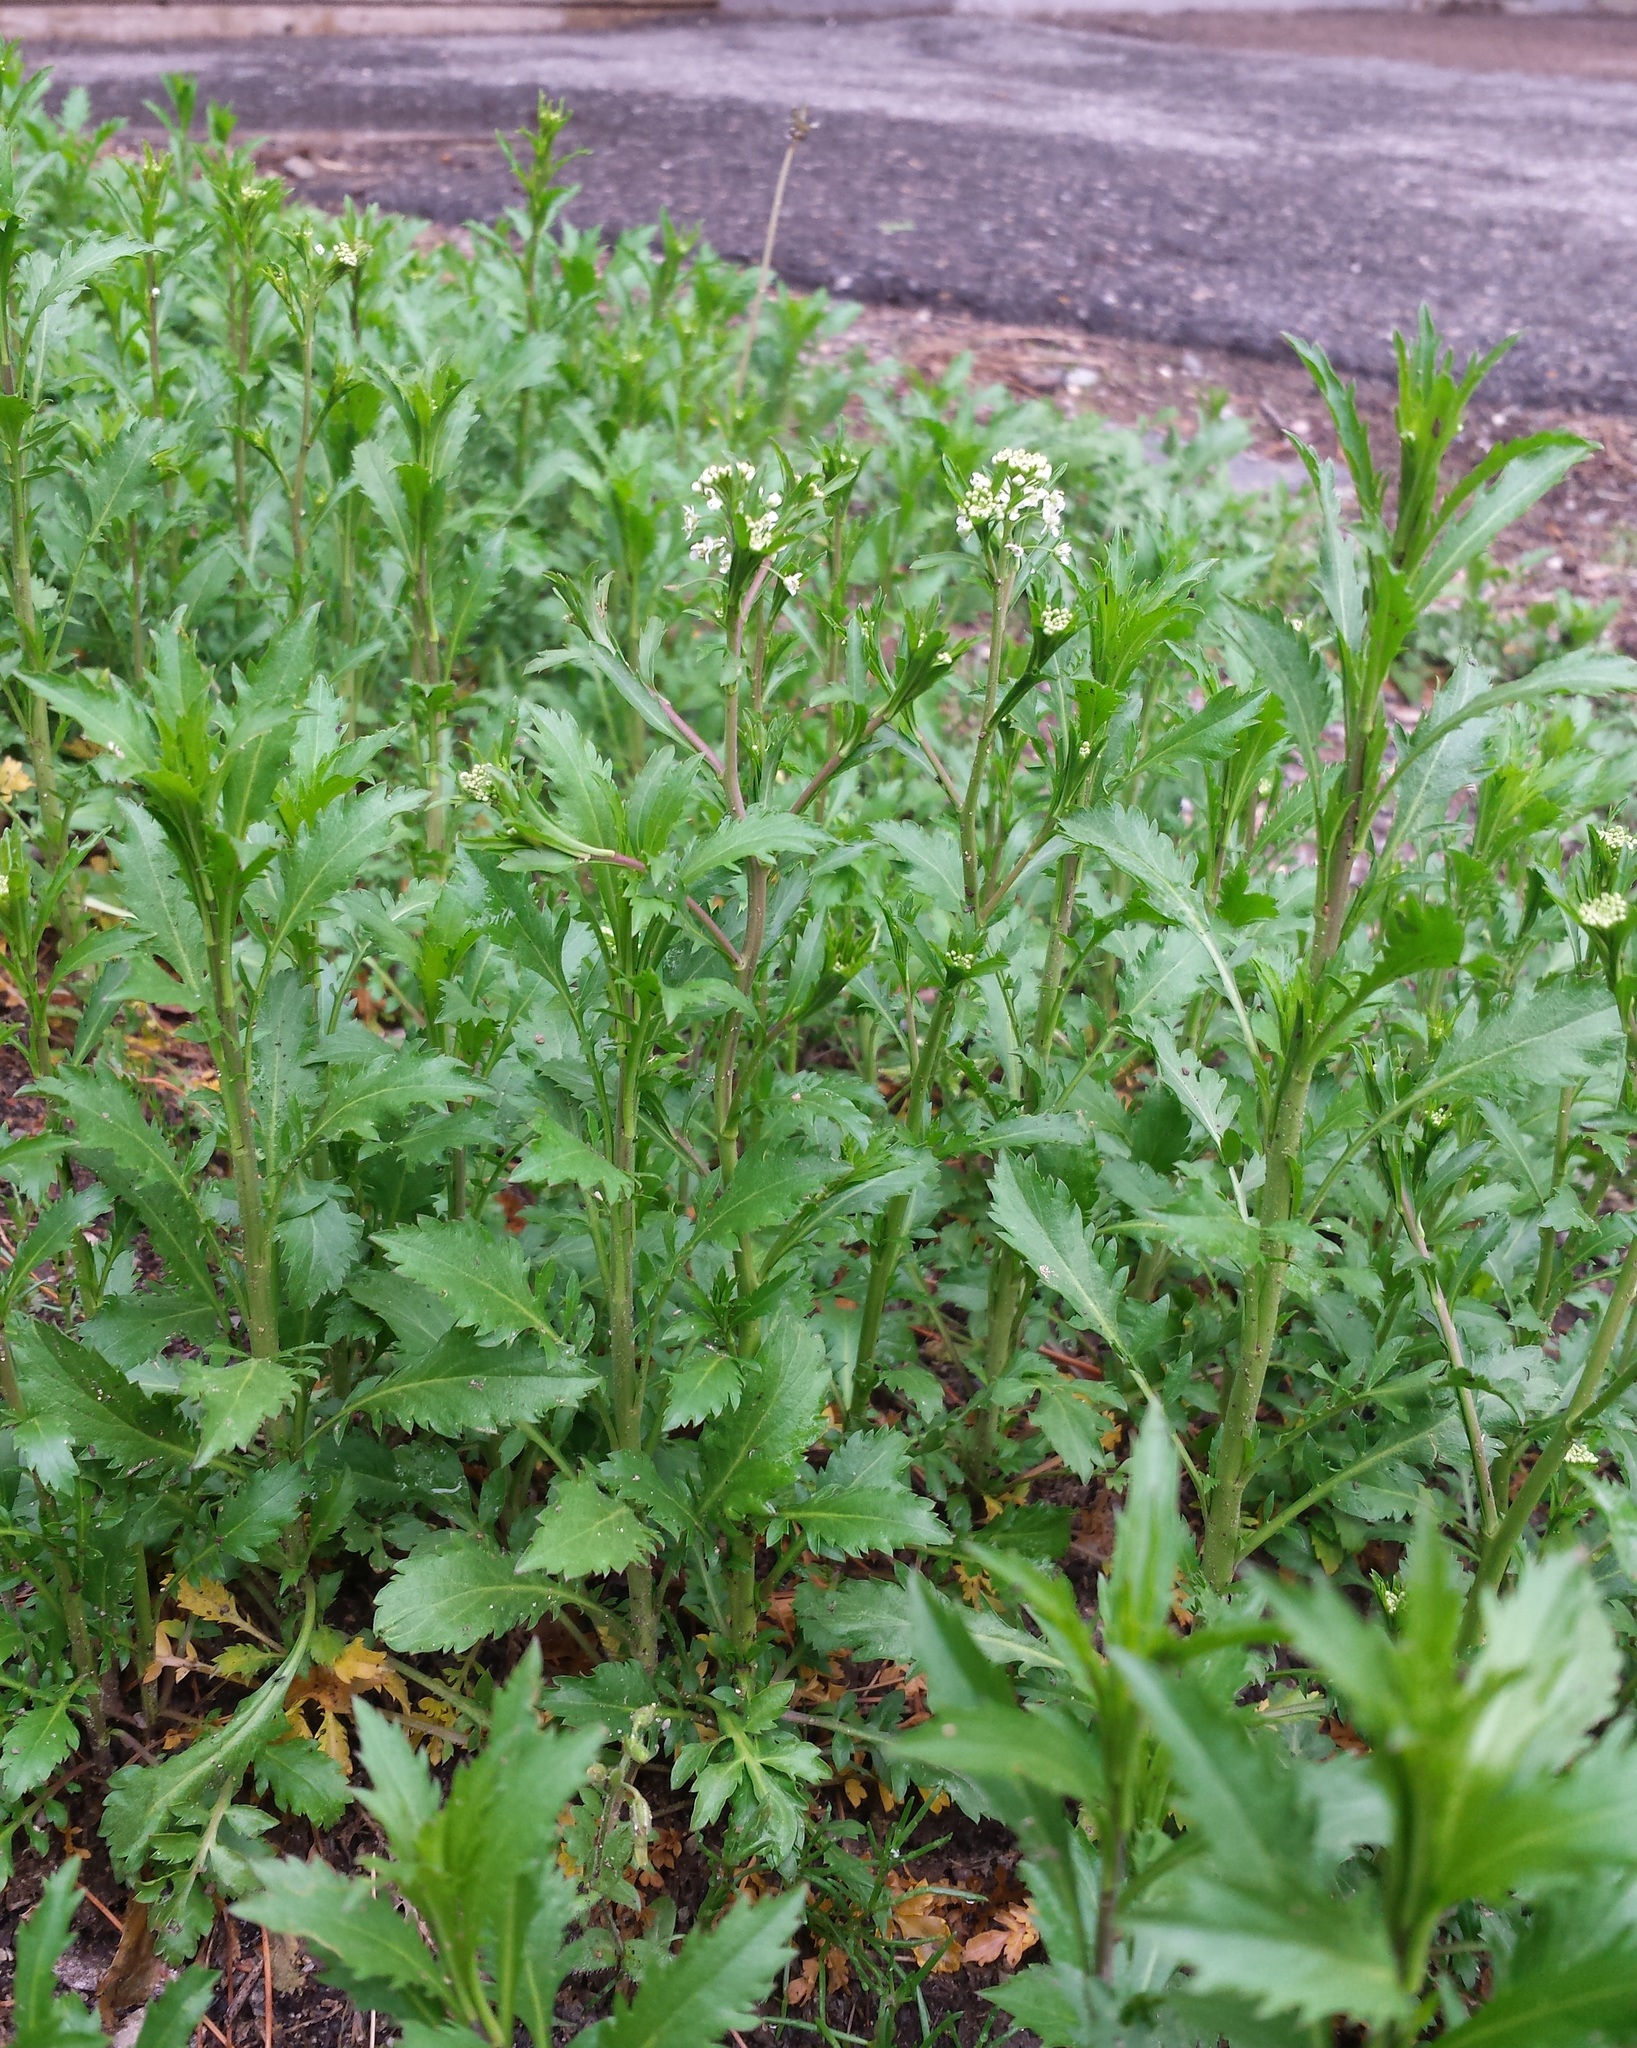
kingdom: Plantae
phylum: Tracheophyta
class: Magnoliopsida
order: Brassicales
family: Brassicaceae
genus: Lepidium
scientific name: Lepidium virginicum
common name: Least pepperwort
